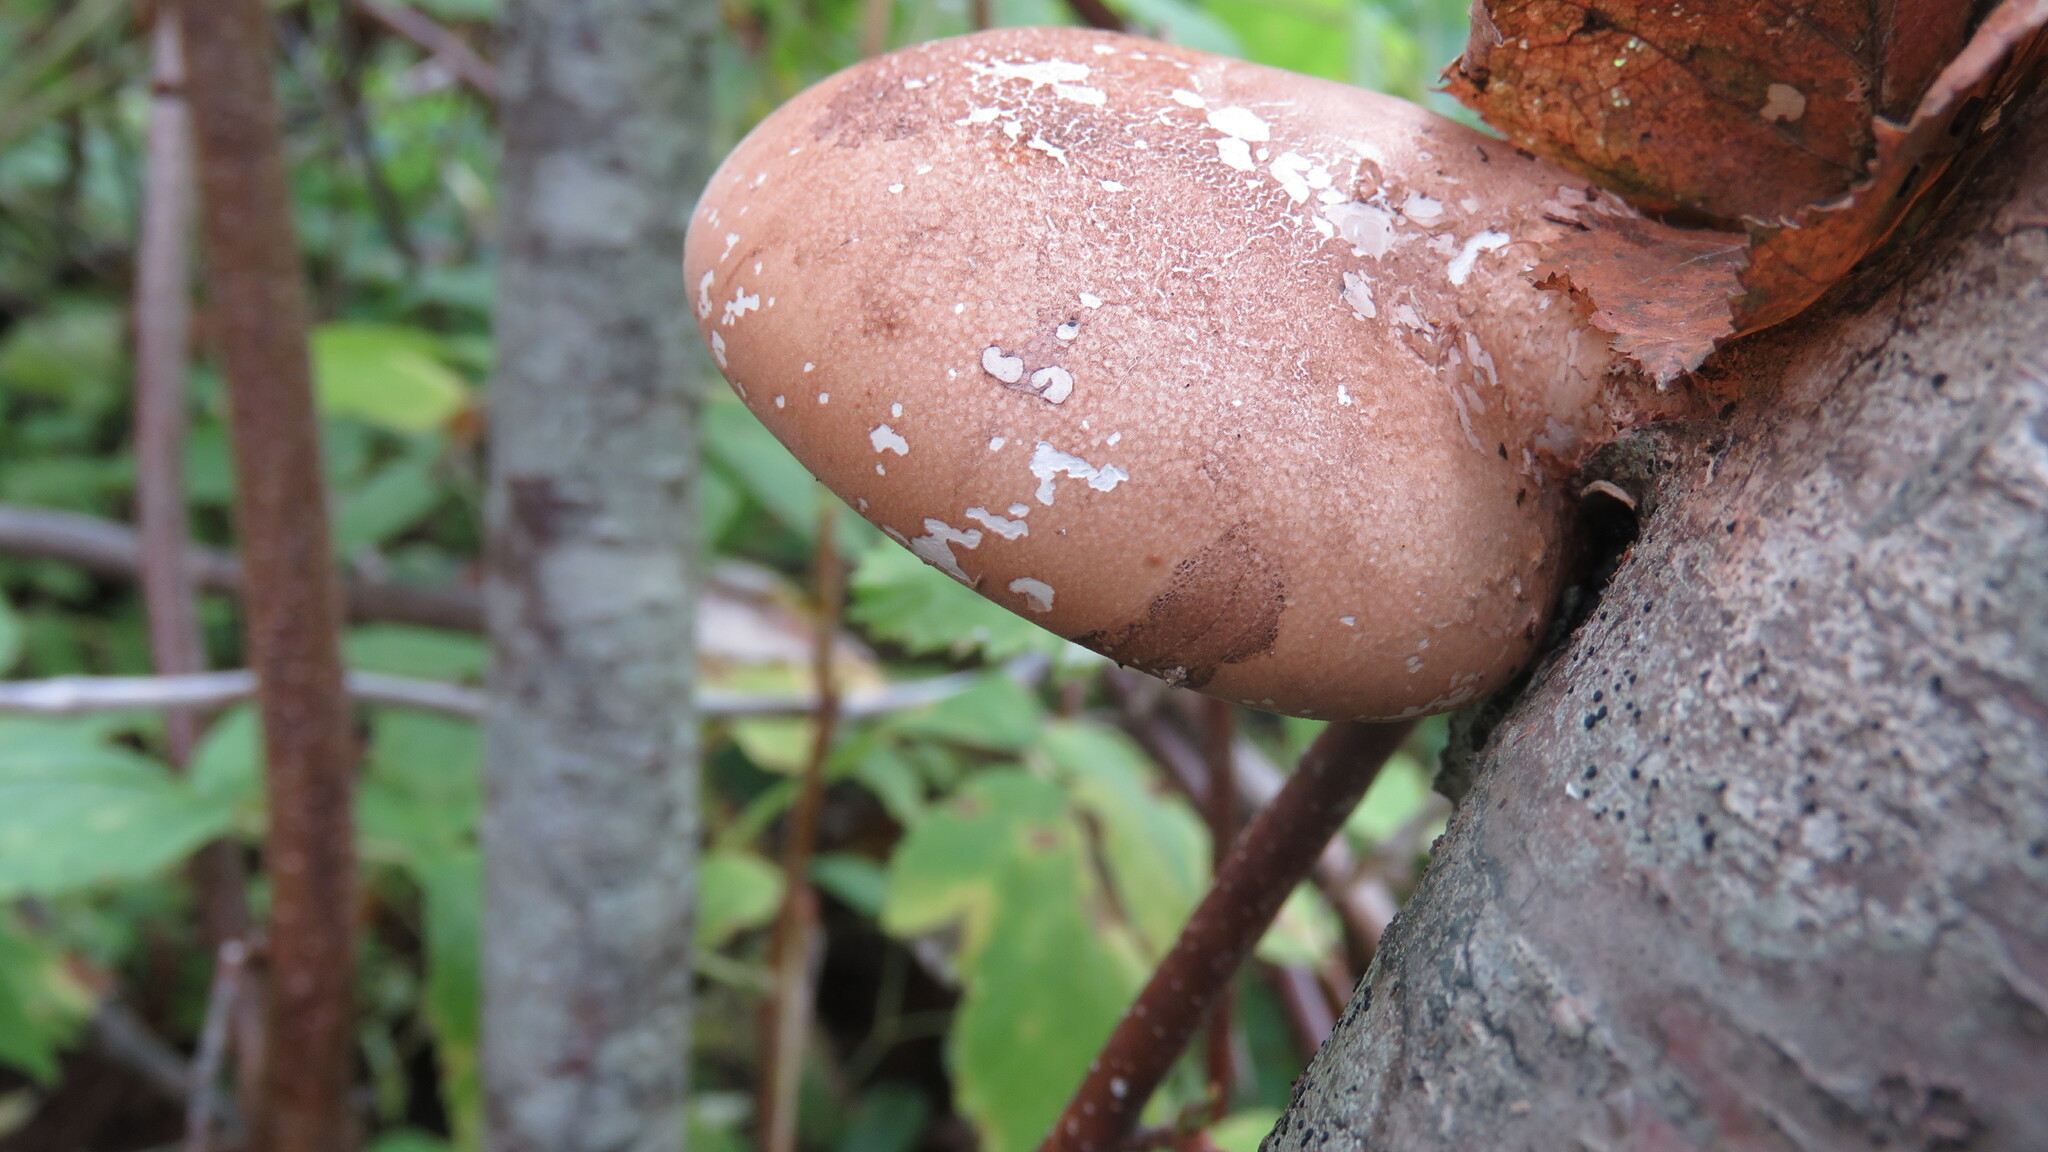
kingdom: Fungi
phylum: Basidiomycota
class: Agaricomycetes
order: Polyporales
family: Fomitopsidaceae
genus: Fomitopsis
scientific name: Fomitopsis betulina
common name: Birch polypore
